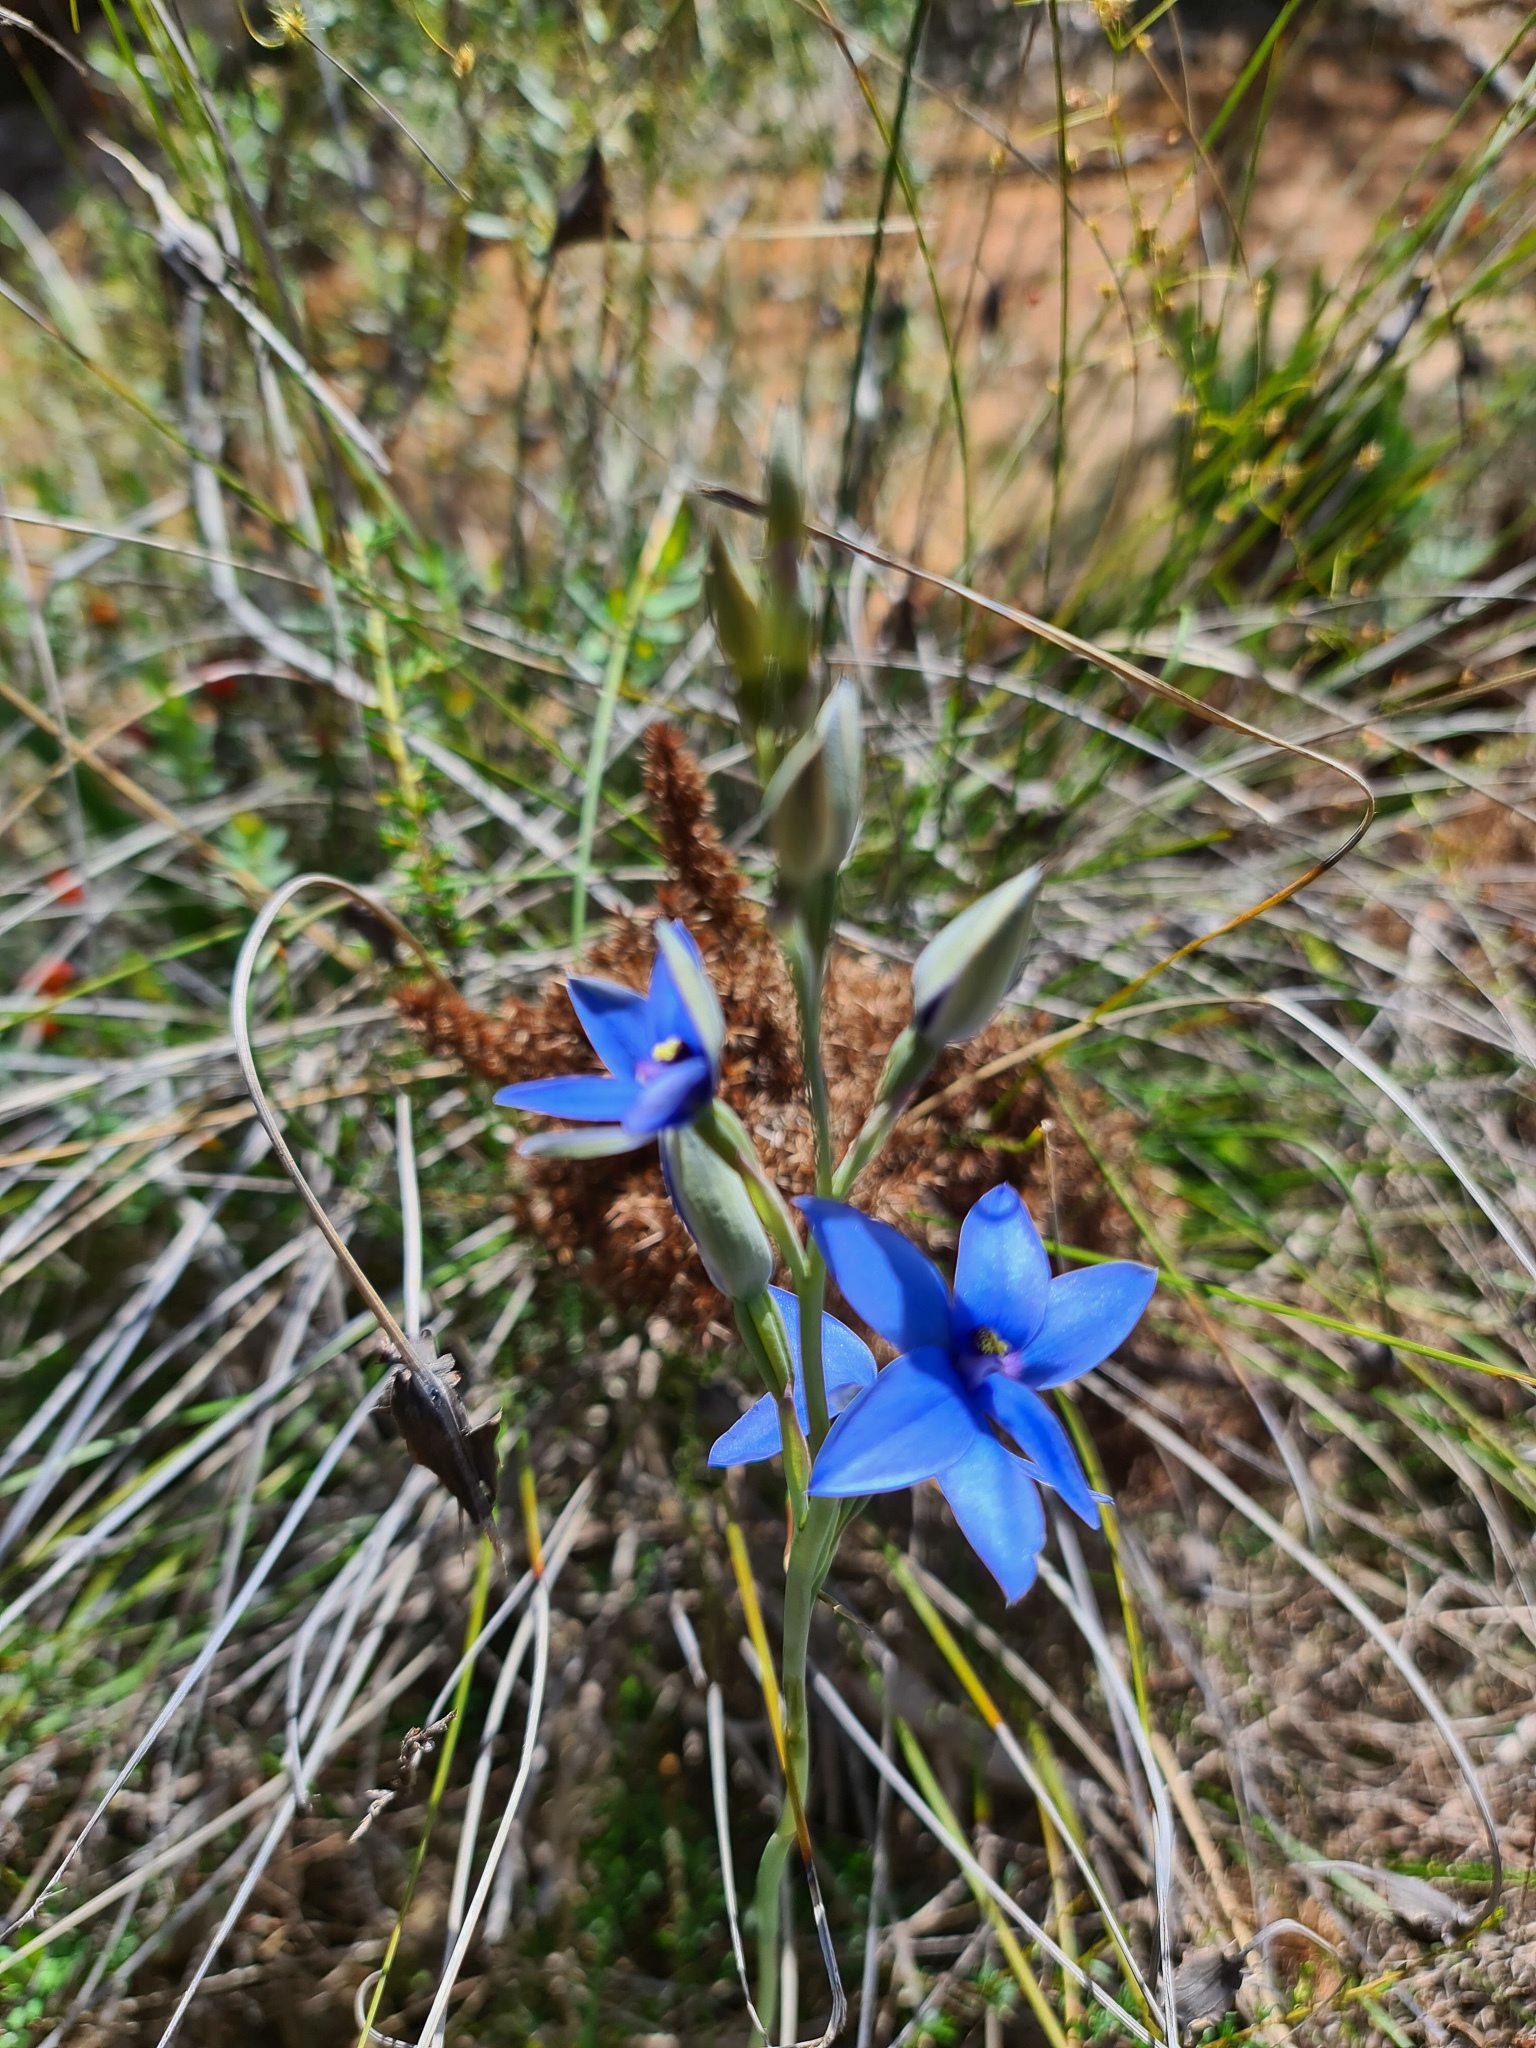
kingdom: Plantae
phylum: Tracheophyta
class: Liliopsida
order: Asparagales
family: Orchidaceae
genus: Thelymitra
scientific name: Thelymitra crinita
